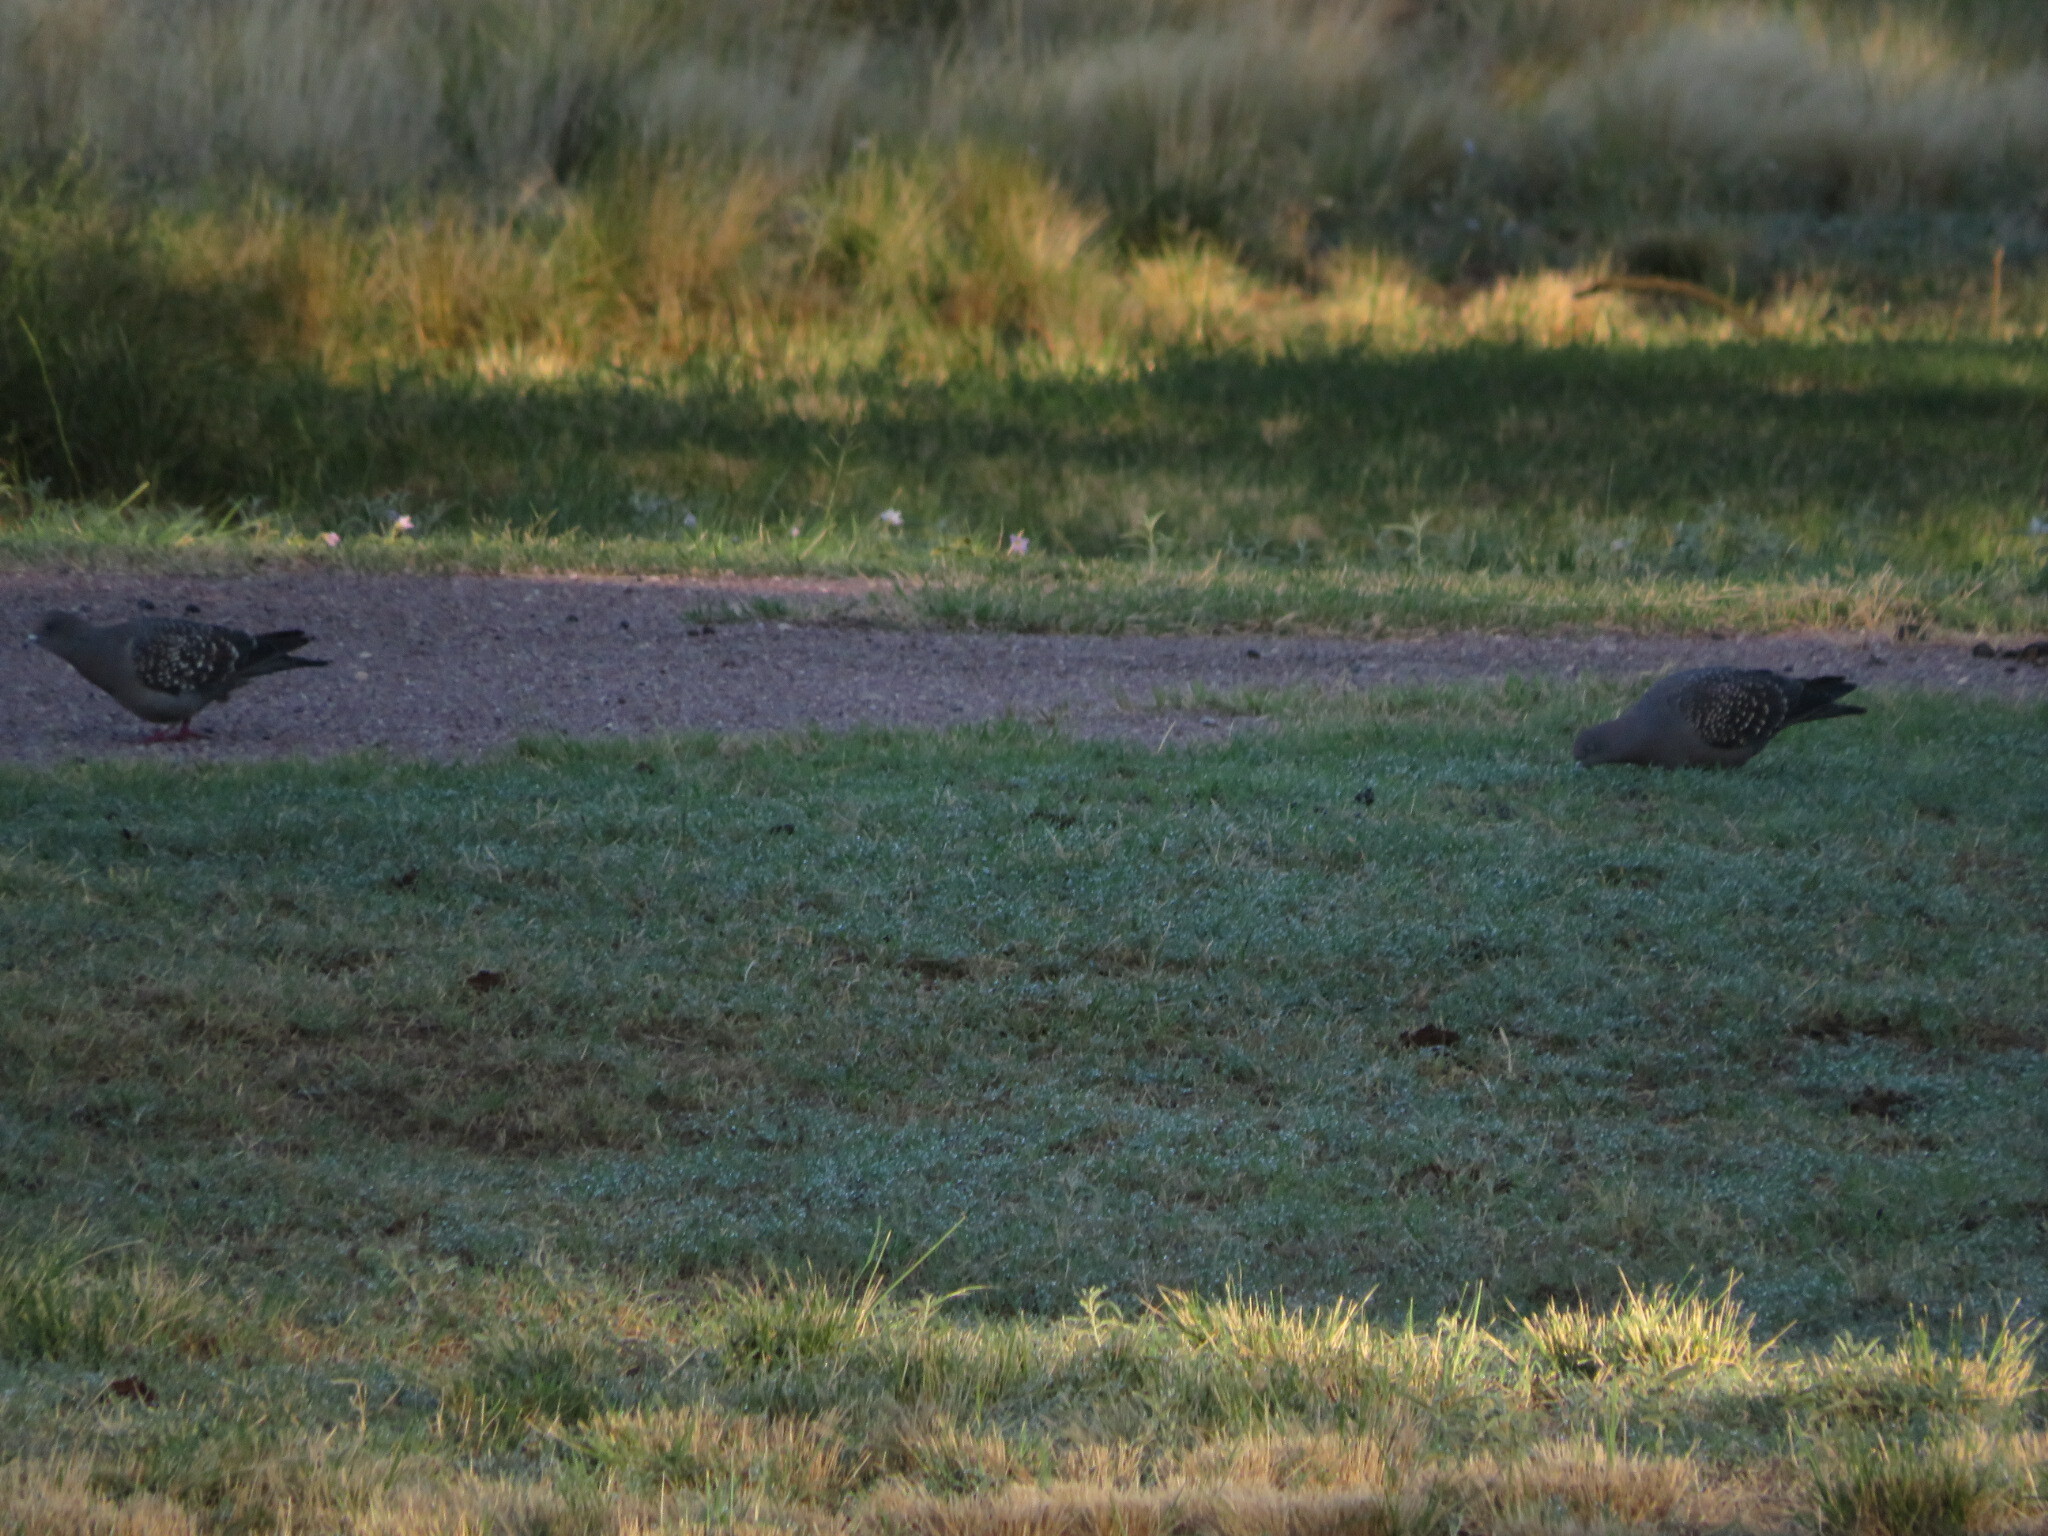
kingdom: Animalia
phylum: Chordata
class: Aves
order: Columbiformes
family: Columbidae
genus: Patagioenas
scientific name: Patagioenas maculosa
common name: Spot-winged pigeon
